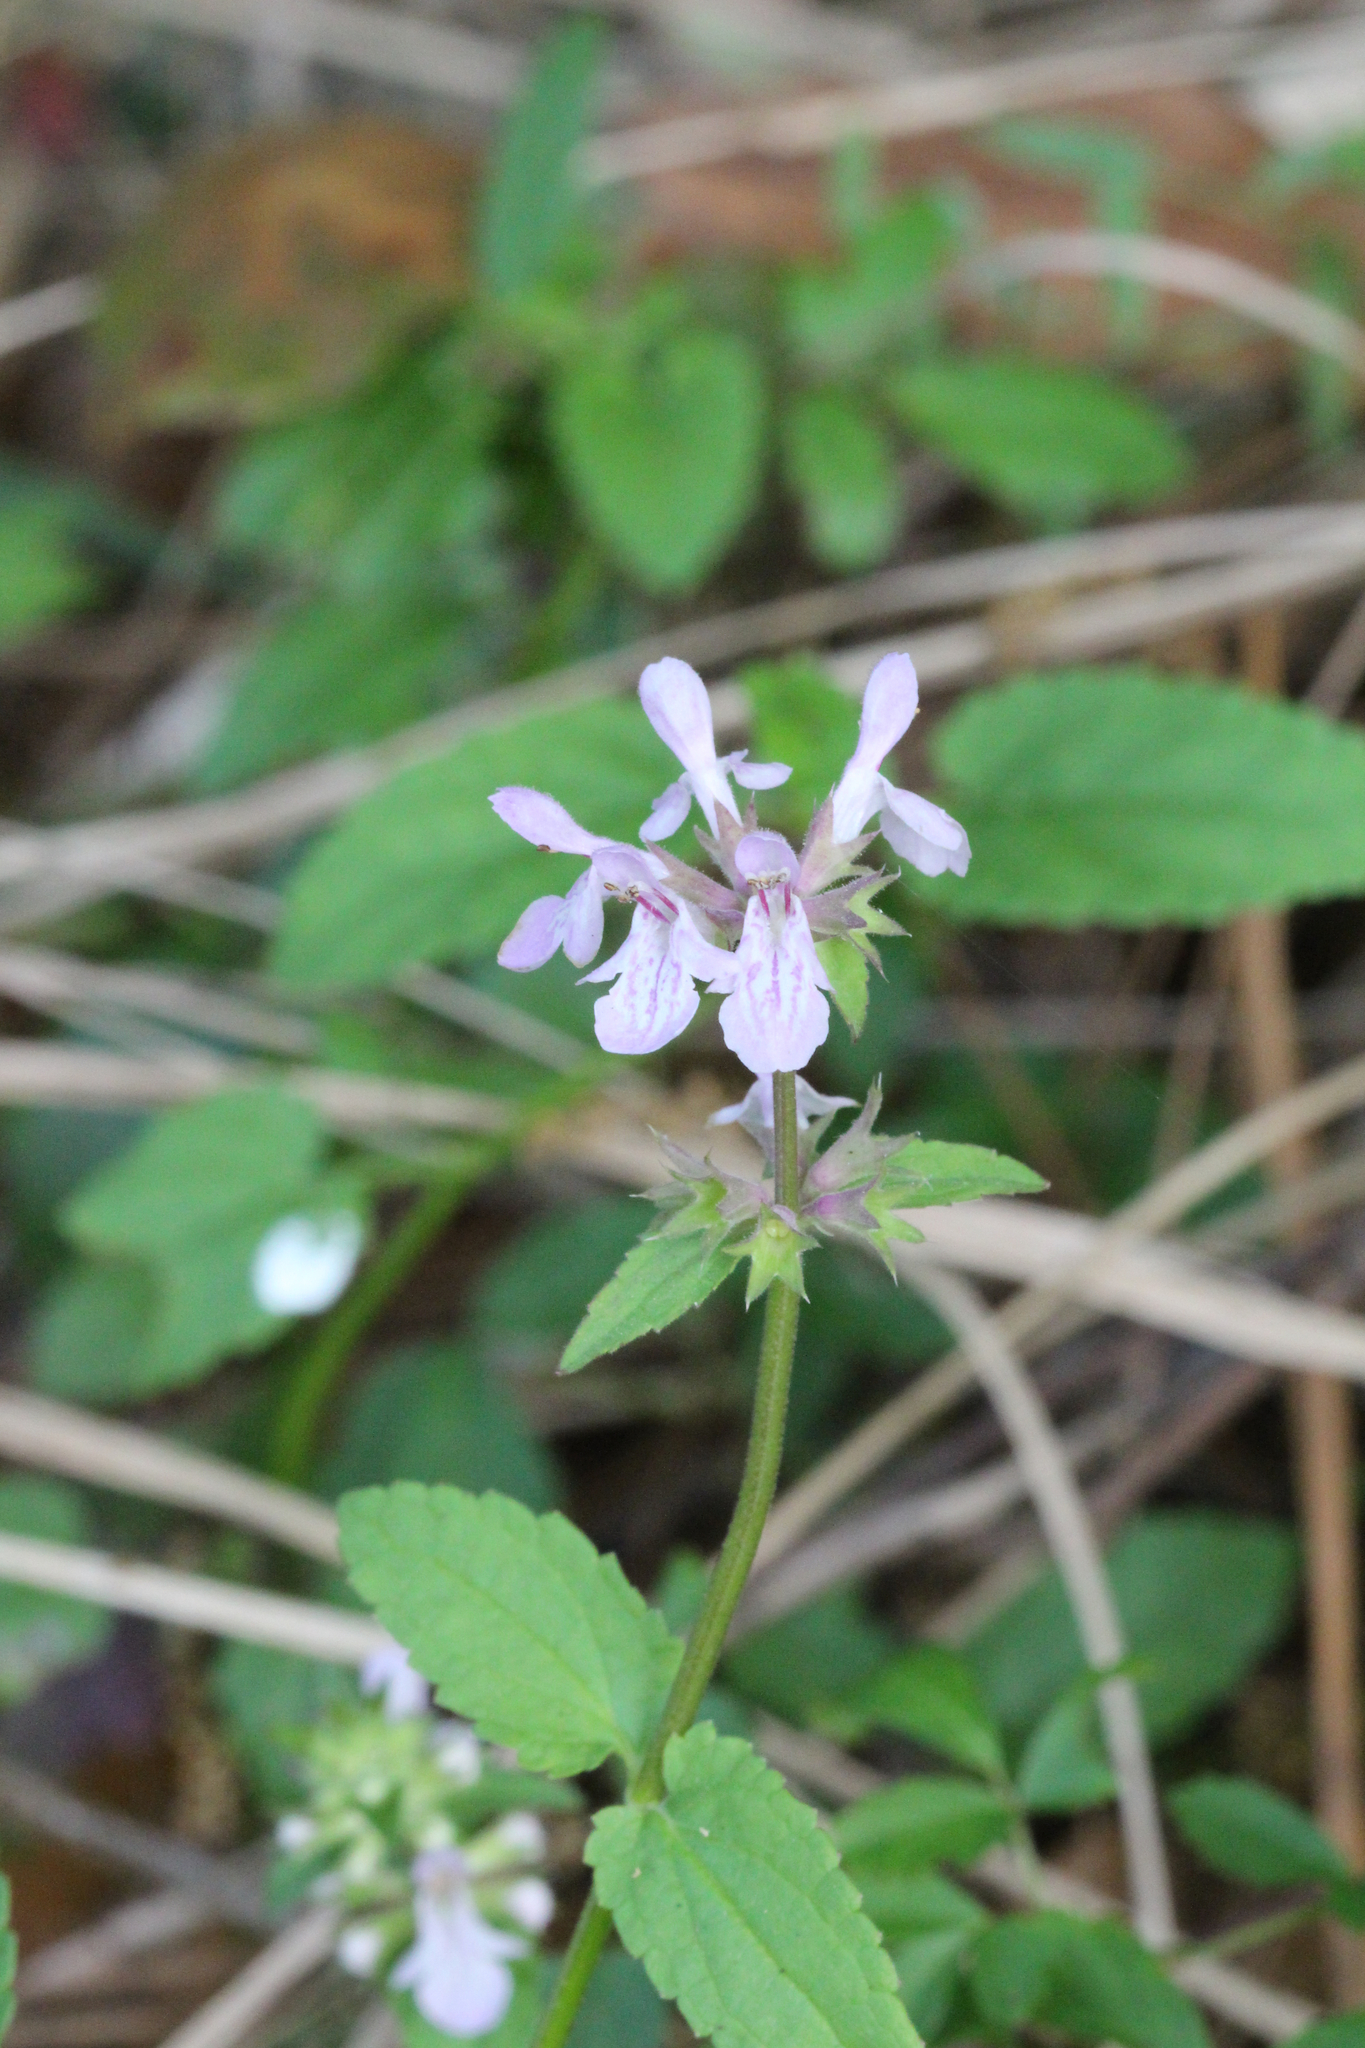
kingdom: Plantae
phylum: Tracheophyta
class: Magnoliopsida
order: Lamiales
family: Lamiaceae
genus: Stachys
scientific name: Stachys floridana
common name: Florida betony
